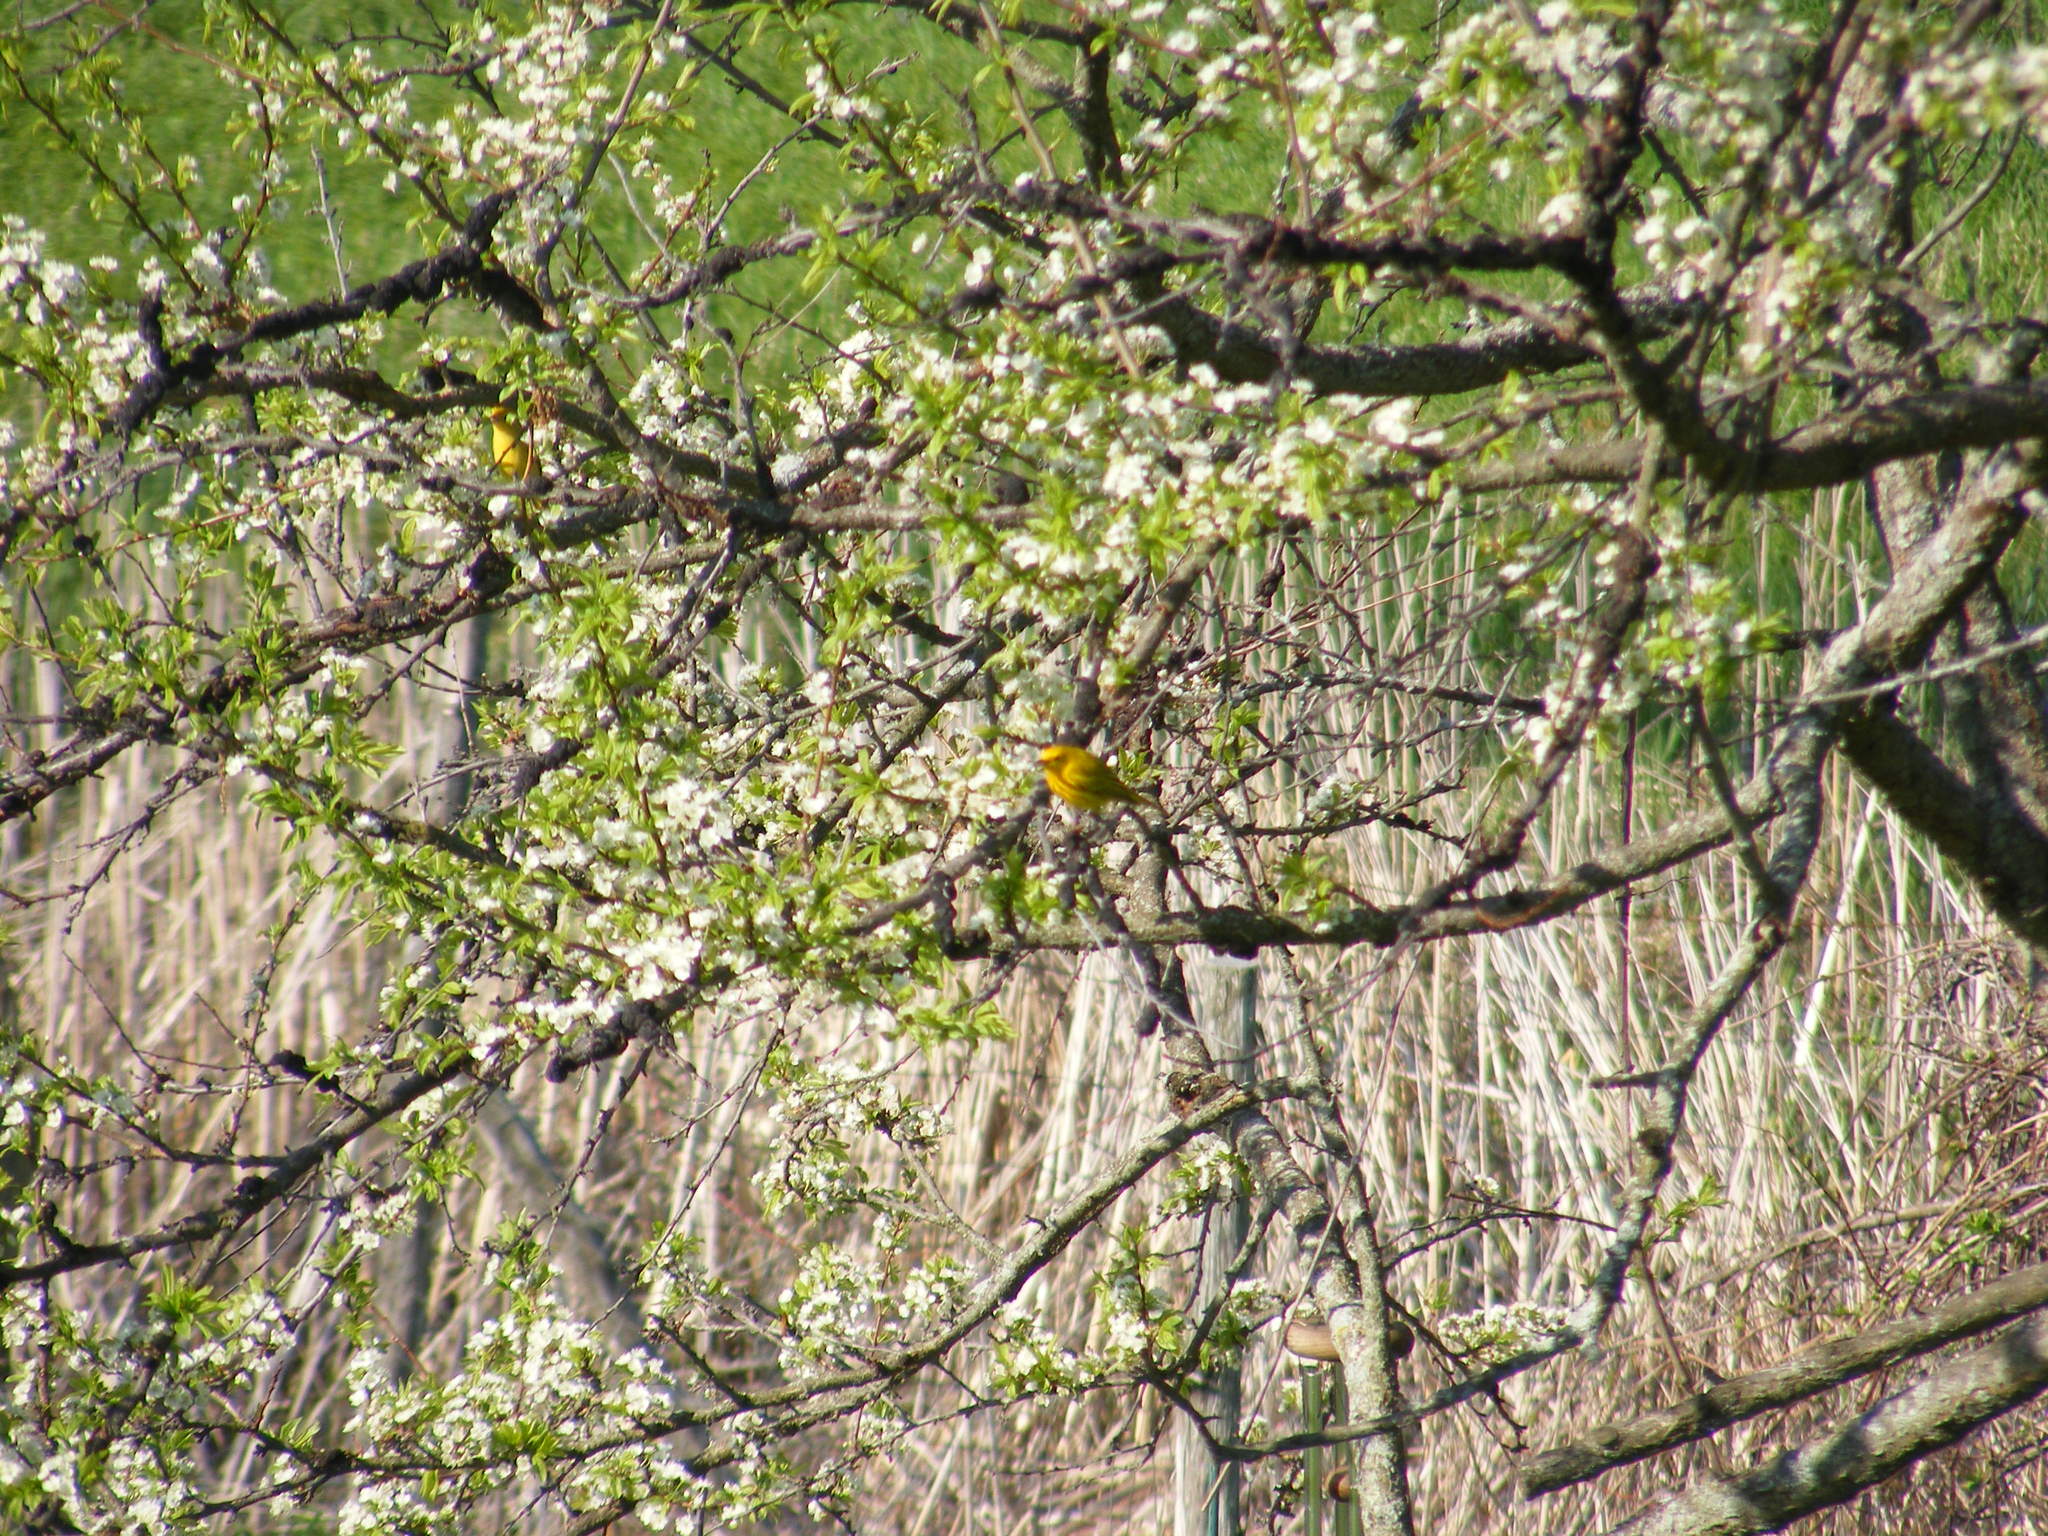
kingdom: Animalia
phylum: Chordata
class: Aves
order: Passeriformes
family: Parulidae
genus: Setophaga
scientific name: Setophaga petechia
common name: Yellow warbler
